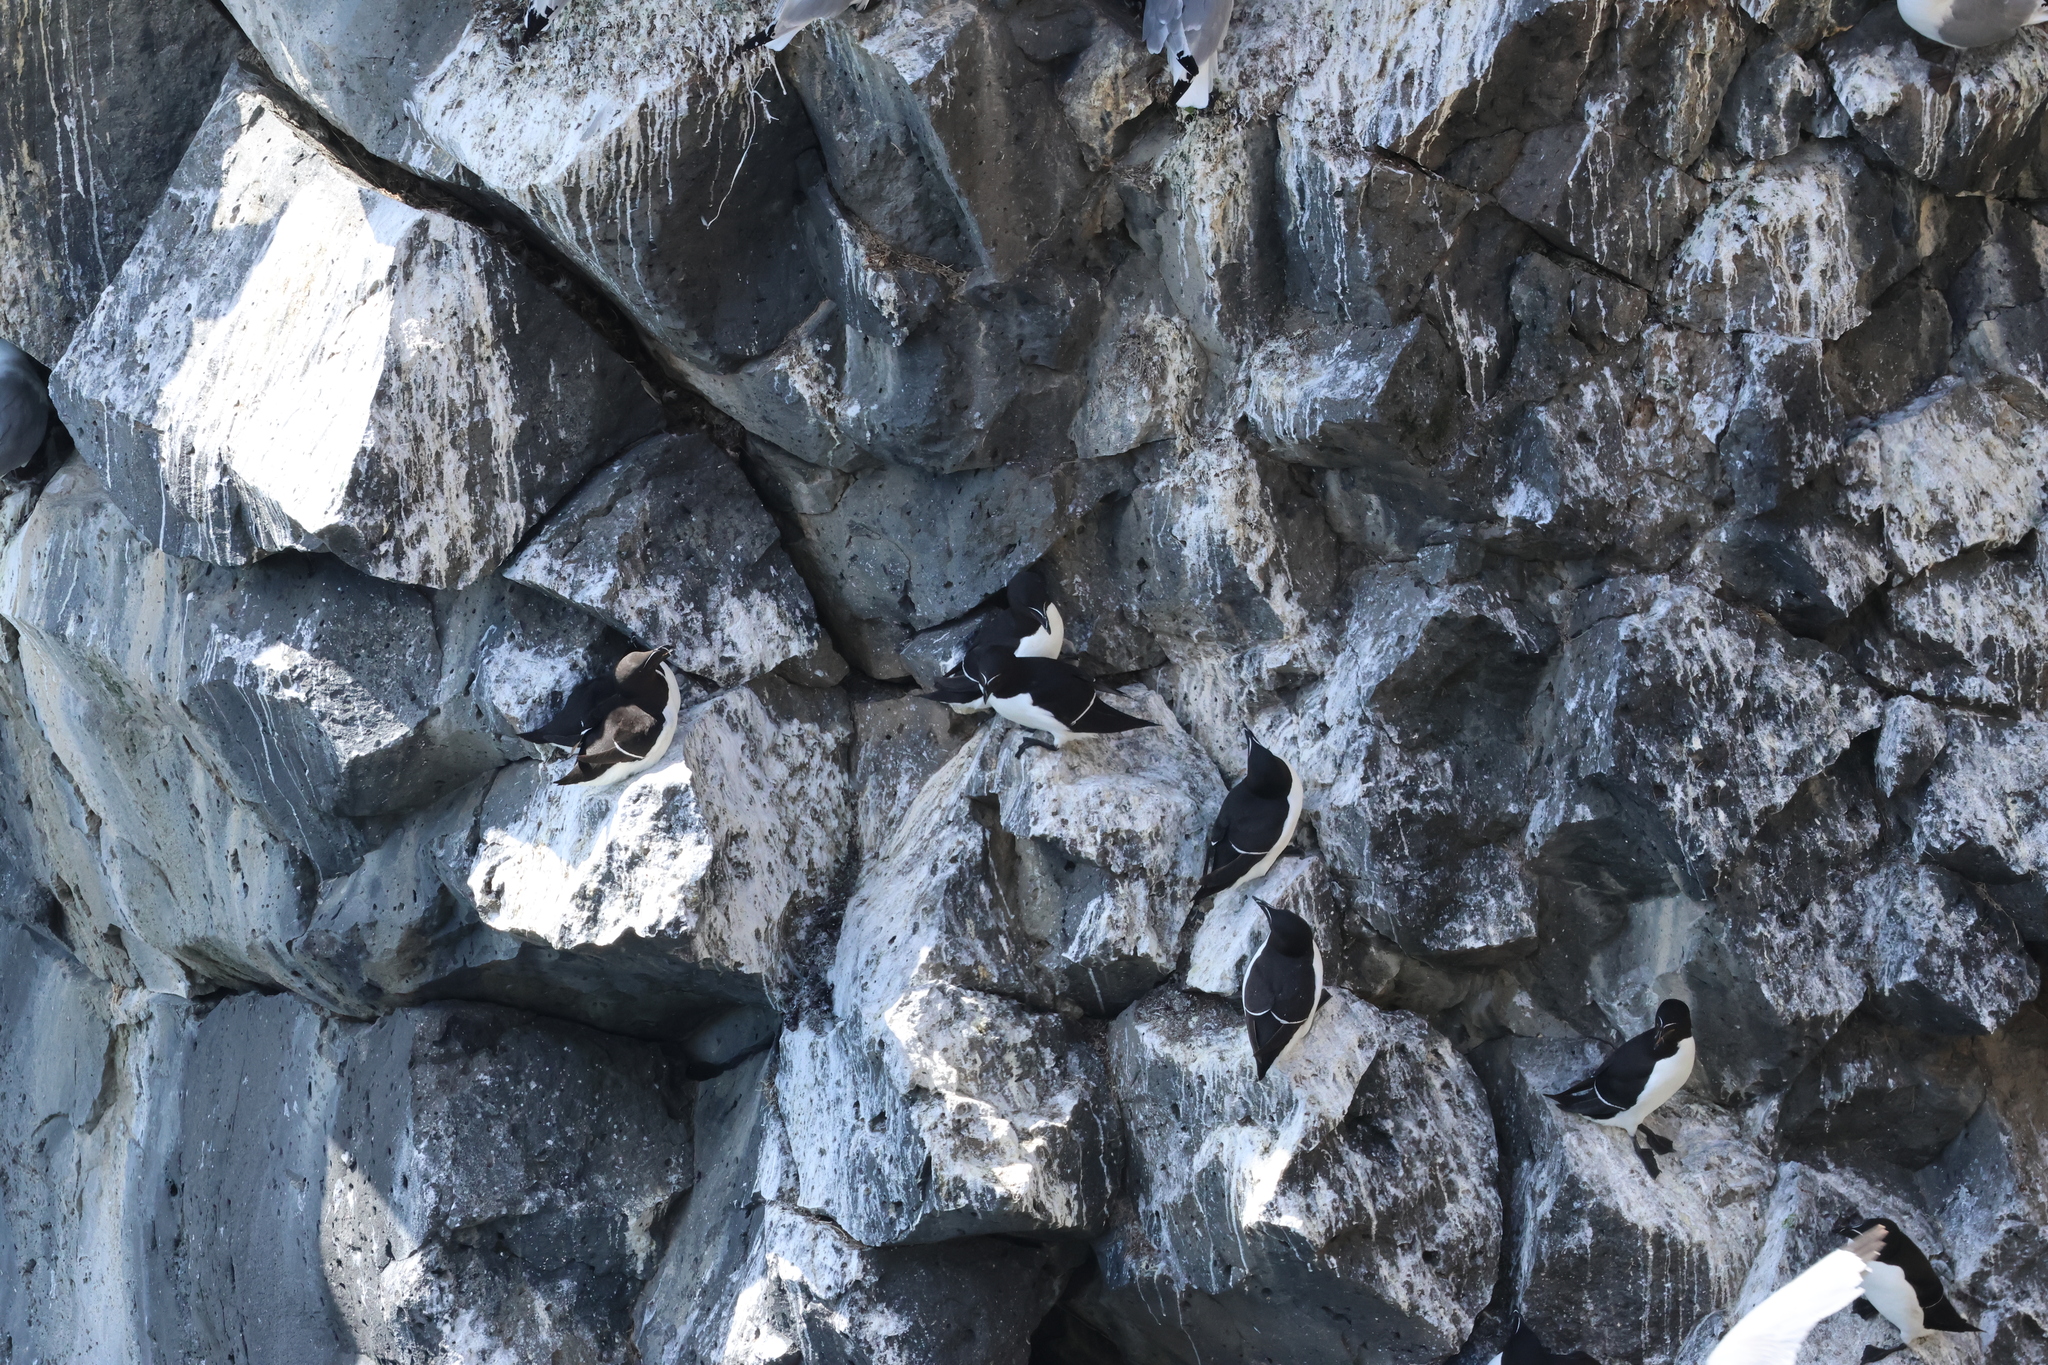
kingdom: Animalia
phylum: Chordata
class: Aves
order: Charadriiformes
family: Alcidae
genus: Alca
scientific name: Alca torda
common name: Razorbill
